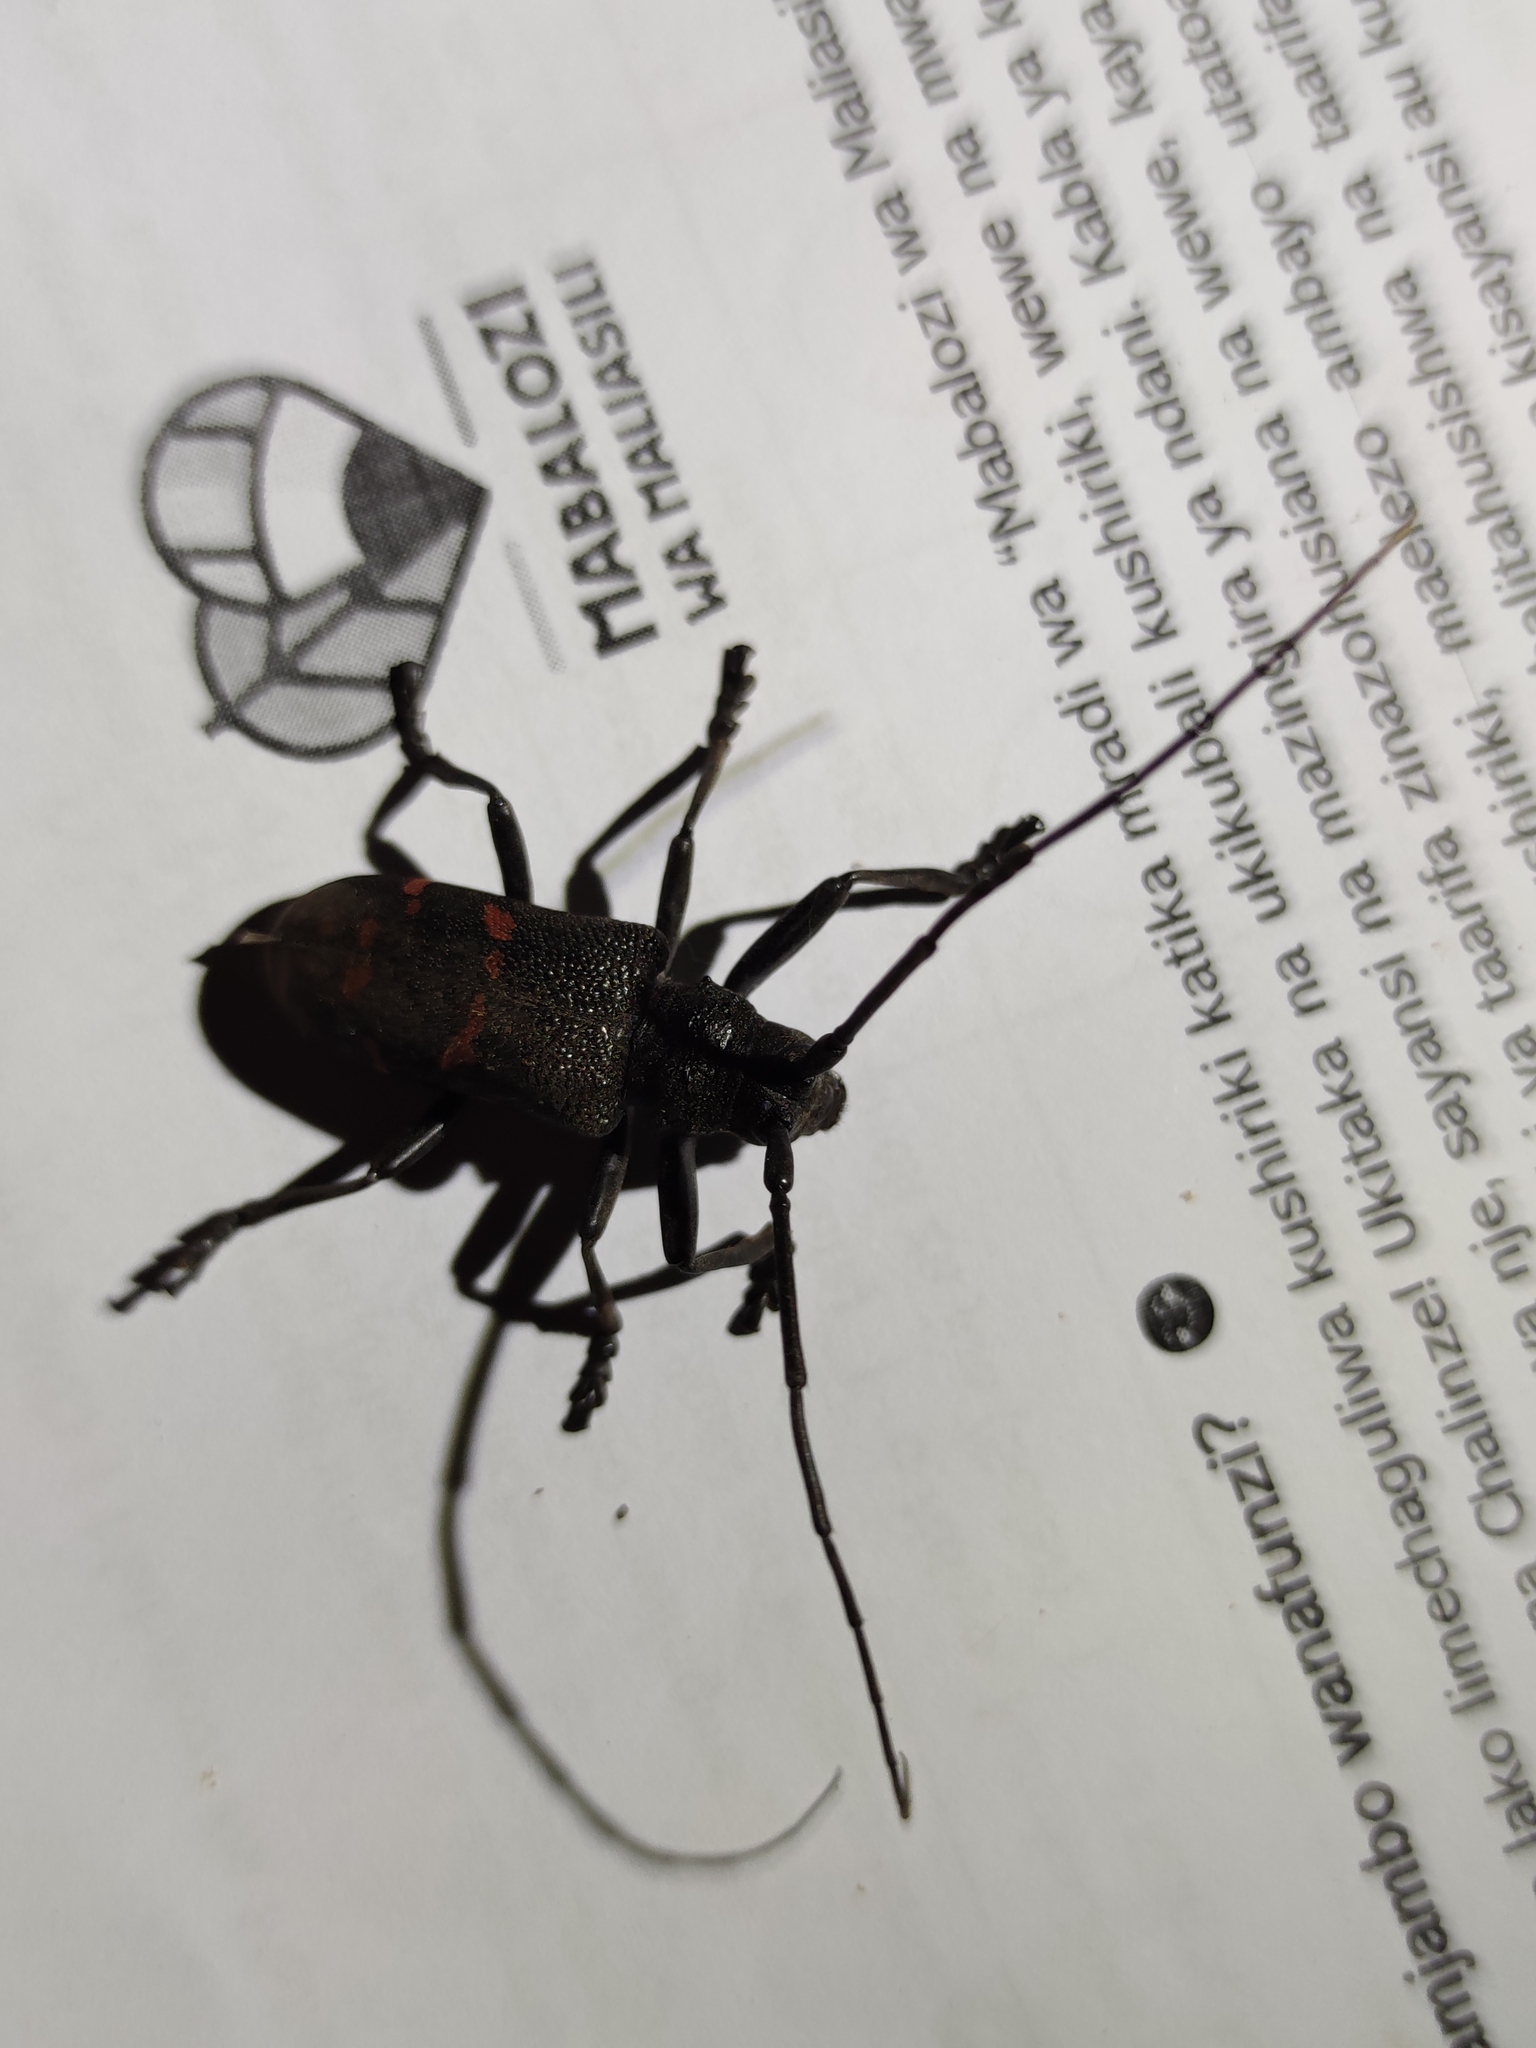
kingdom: Animalia
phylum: Arthropoda
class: Insecta
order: Coleoptera
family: Cerambycidae
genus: Ceroplesis
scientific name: Ceroplesis militaris
